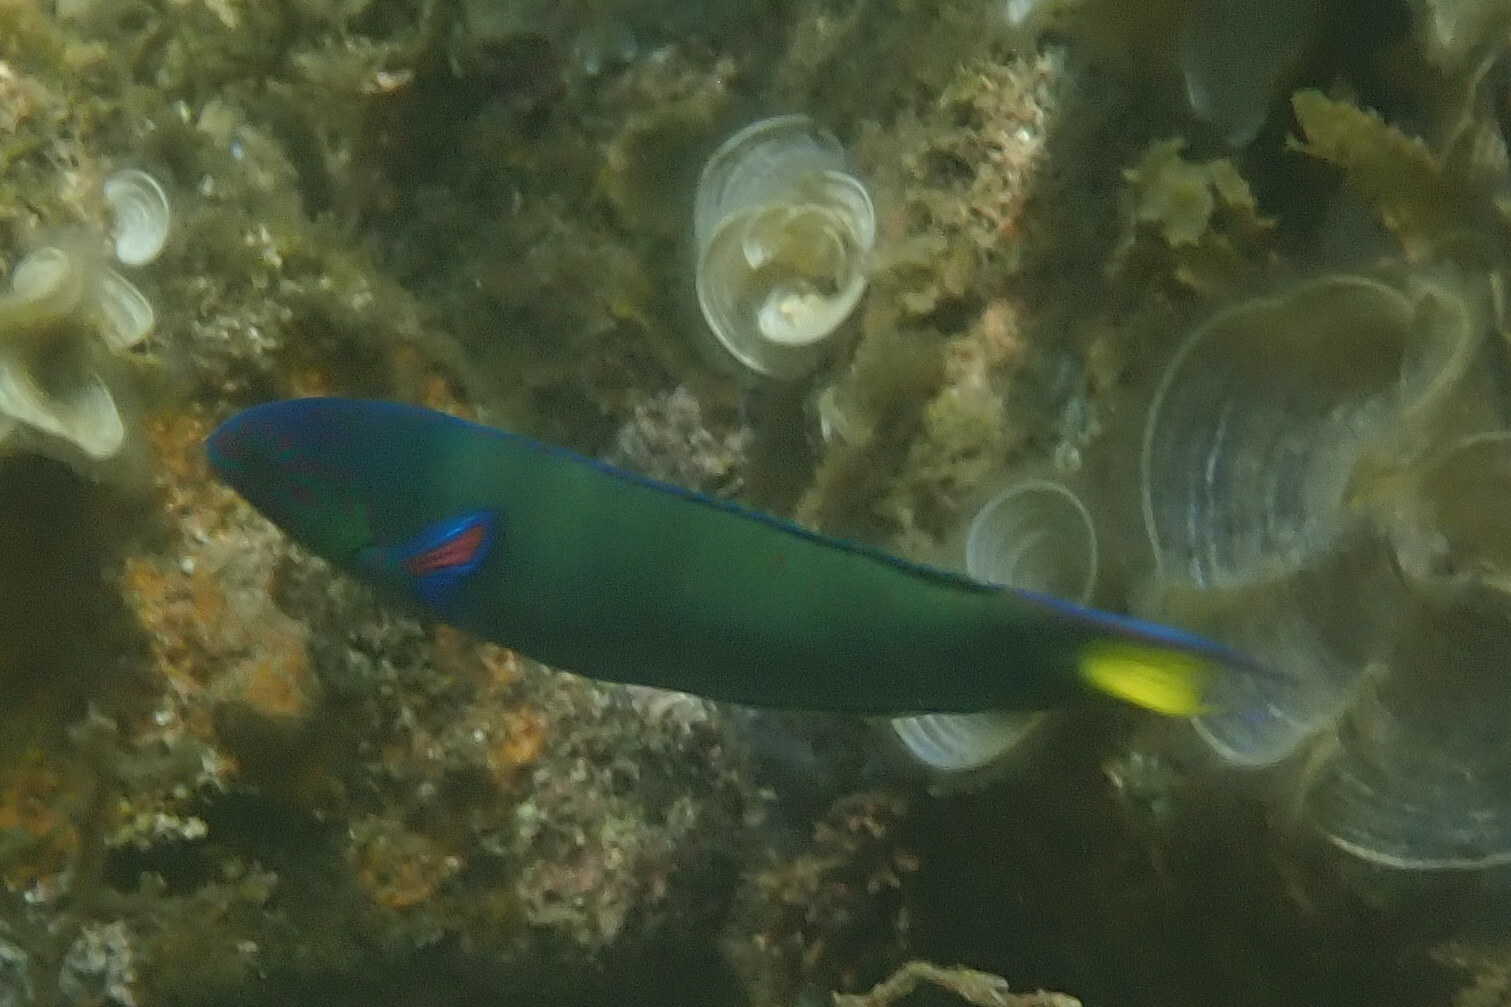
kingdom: Animalia
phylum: Chordata
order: Perciformes
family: Labridae
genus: Thalassoma
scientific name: Thalassoma lunare
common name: Blue wrasse
